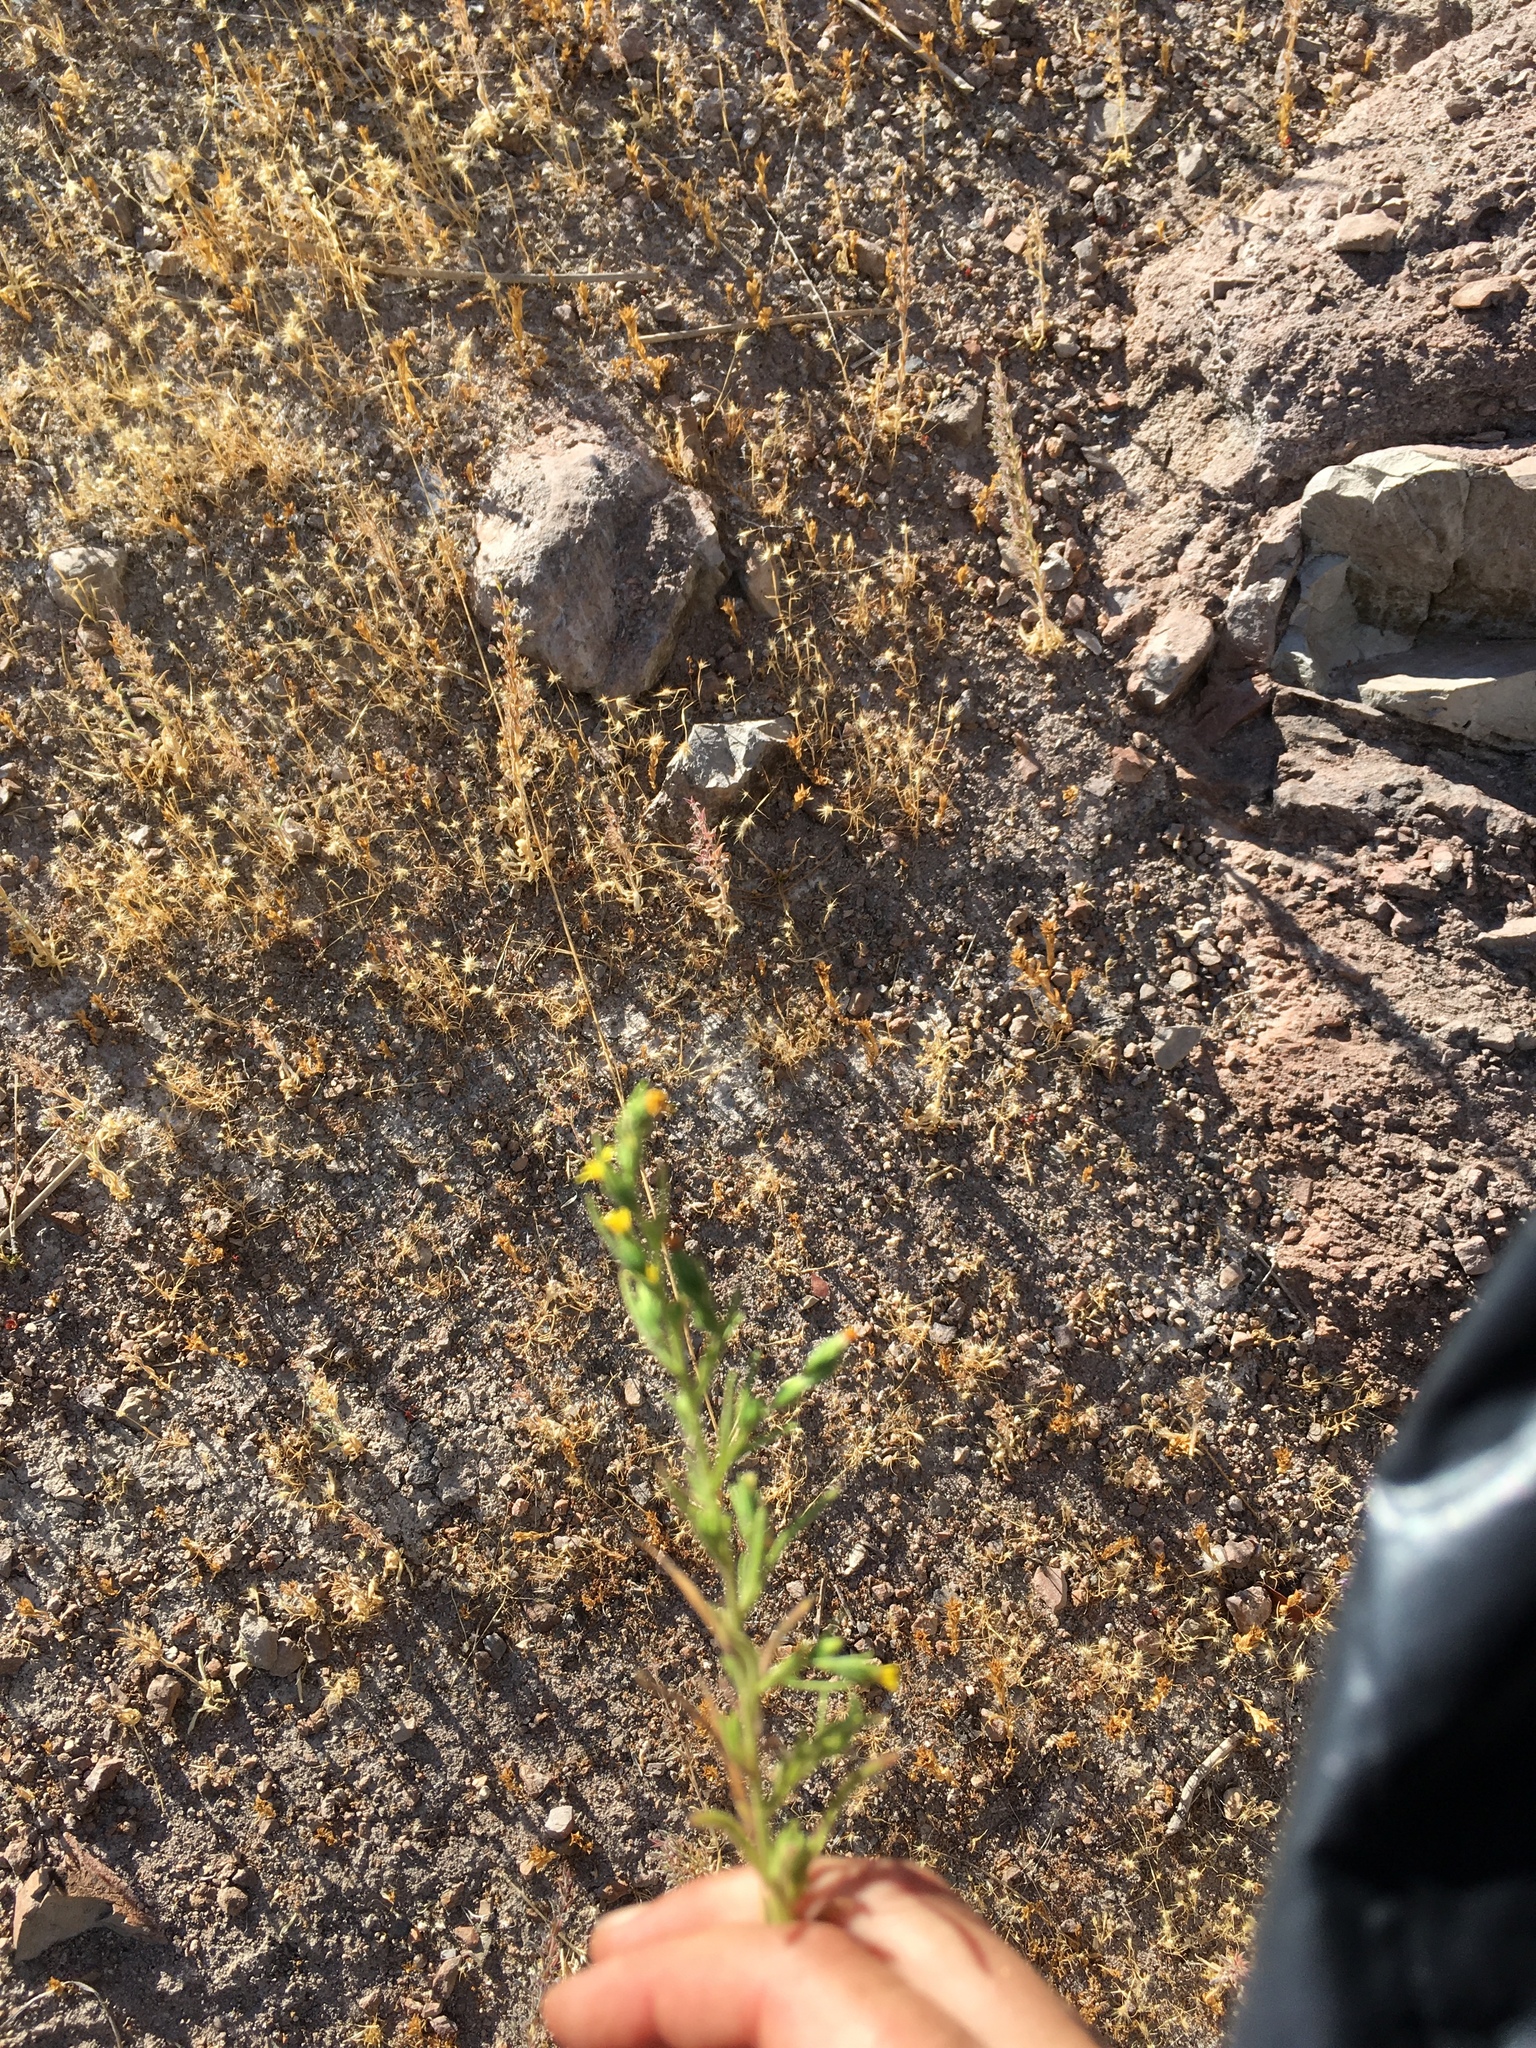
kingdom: Plantae
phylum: Tracheophyta
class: Magnoliopsida
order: Asterales
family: Asteraceae
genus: Dittrichia
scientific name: Dittrichia graveolens
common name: Stinking fleabane
